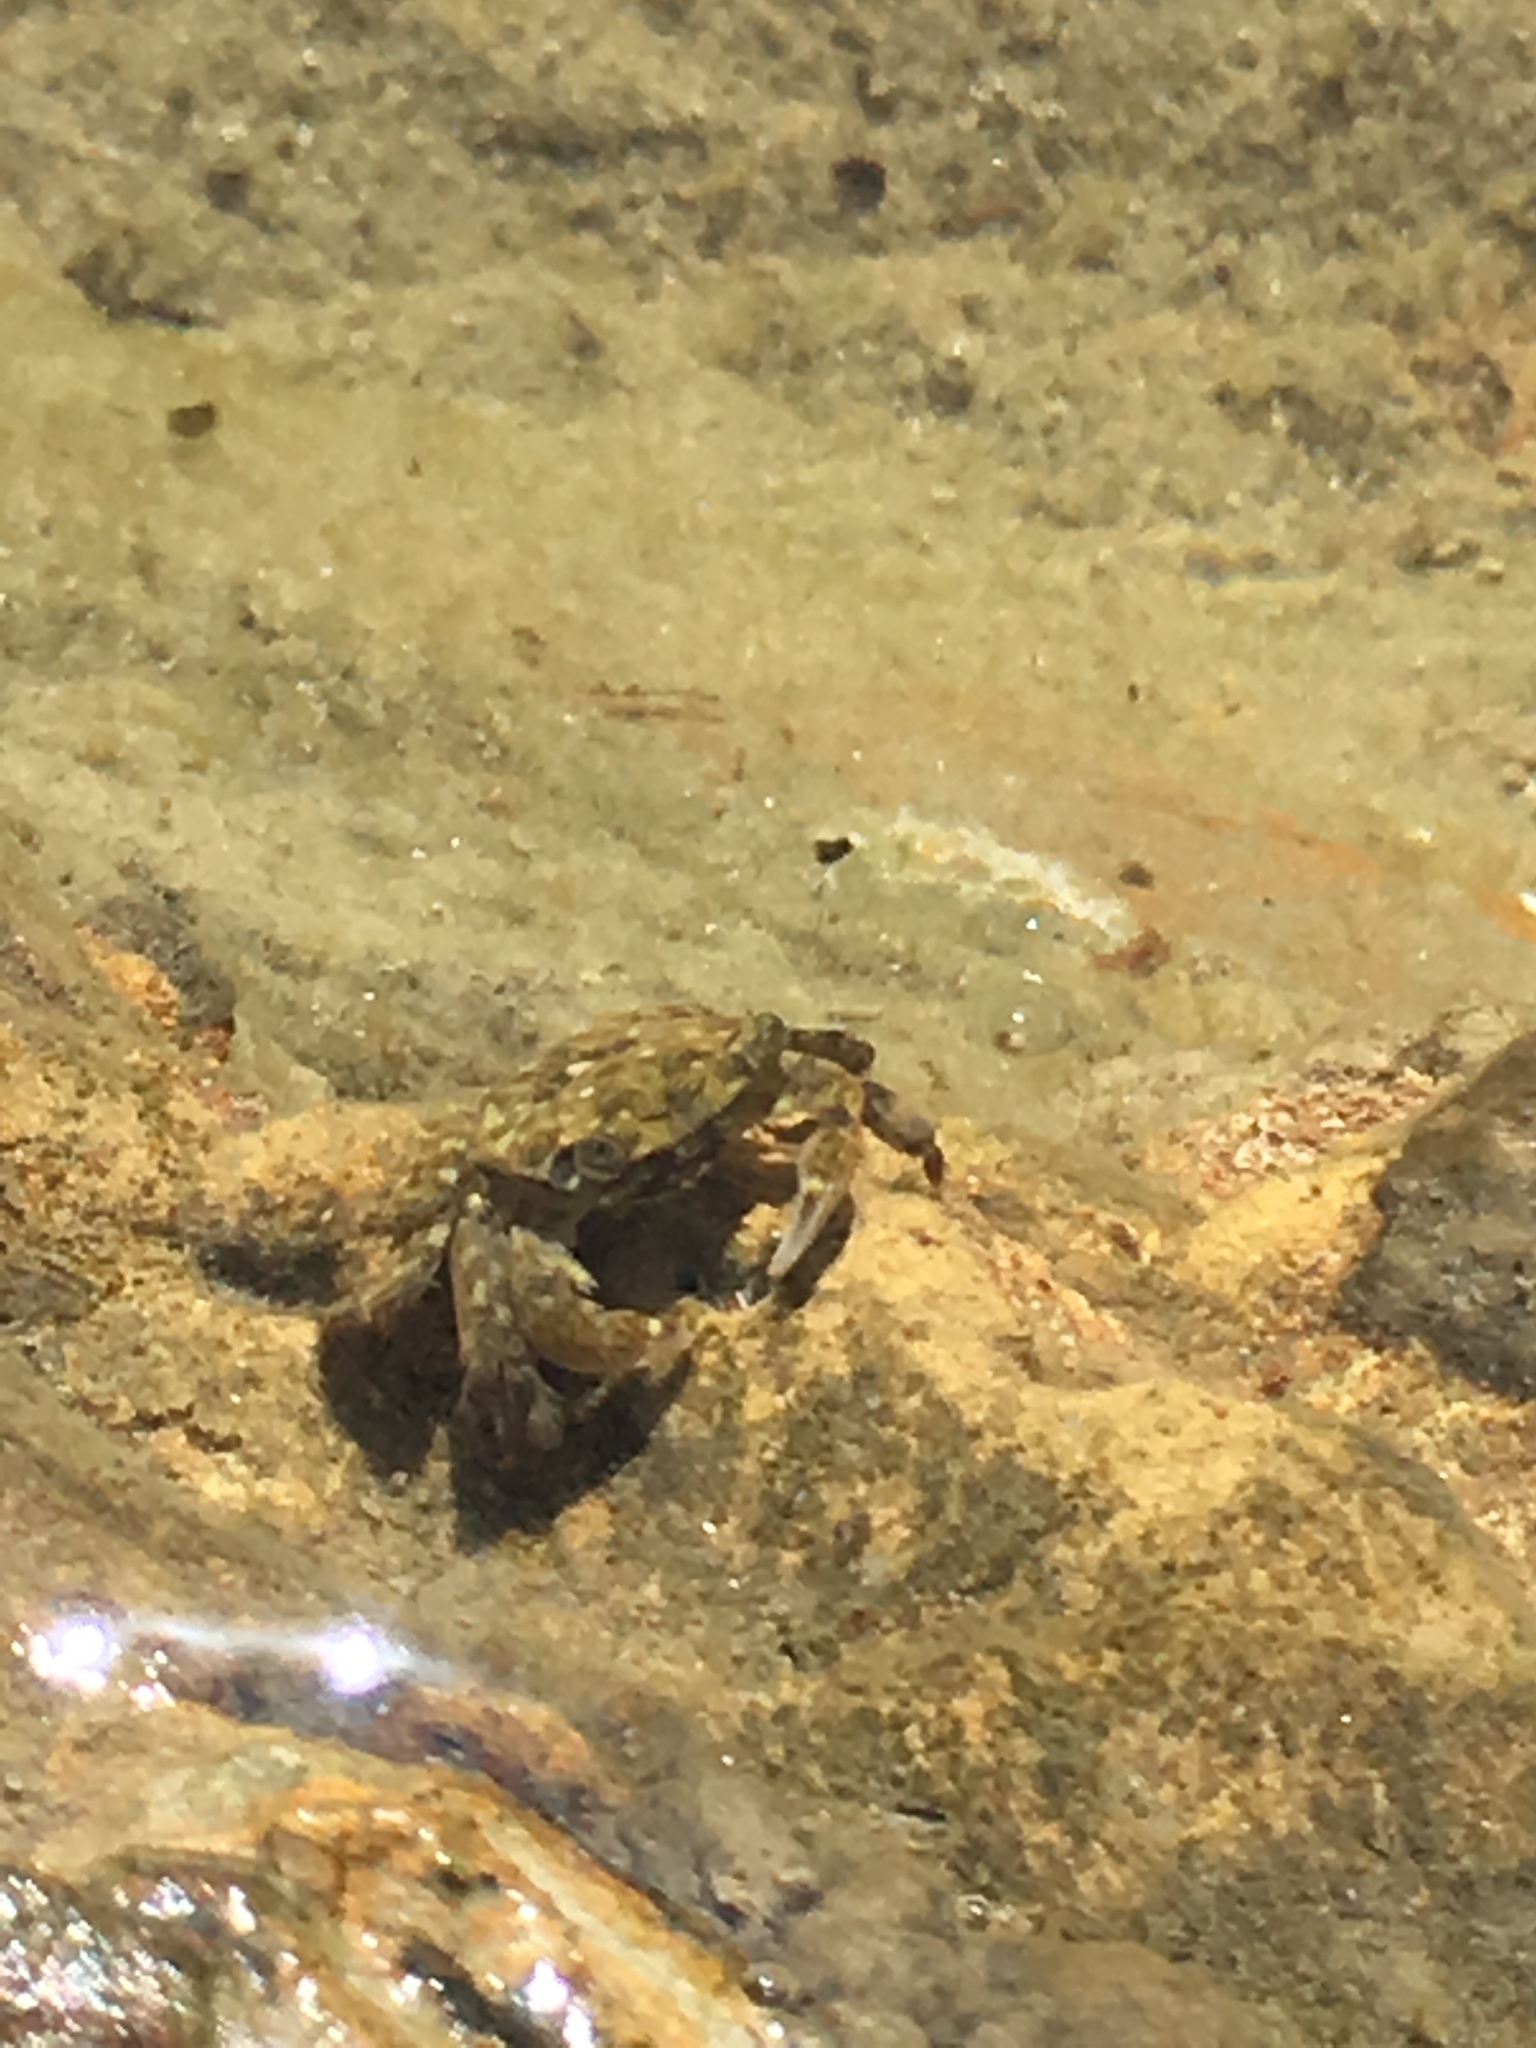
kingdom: Animalia
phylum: Arthropoda
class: Malacostraca
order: Decapoda
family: Grapsidae
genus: Pachygrapsus
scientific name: Pachygrapsus crassipes
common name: Striped shore crab
